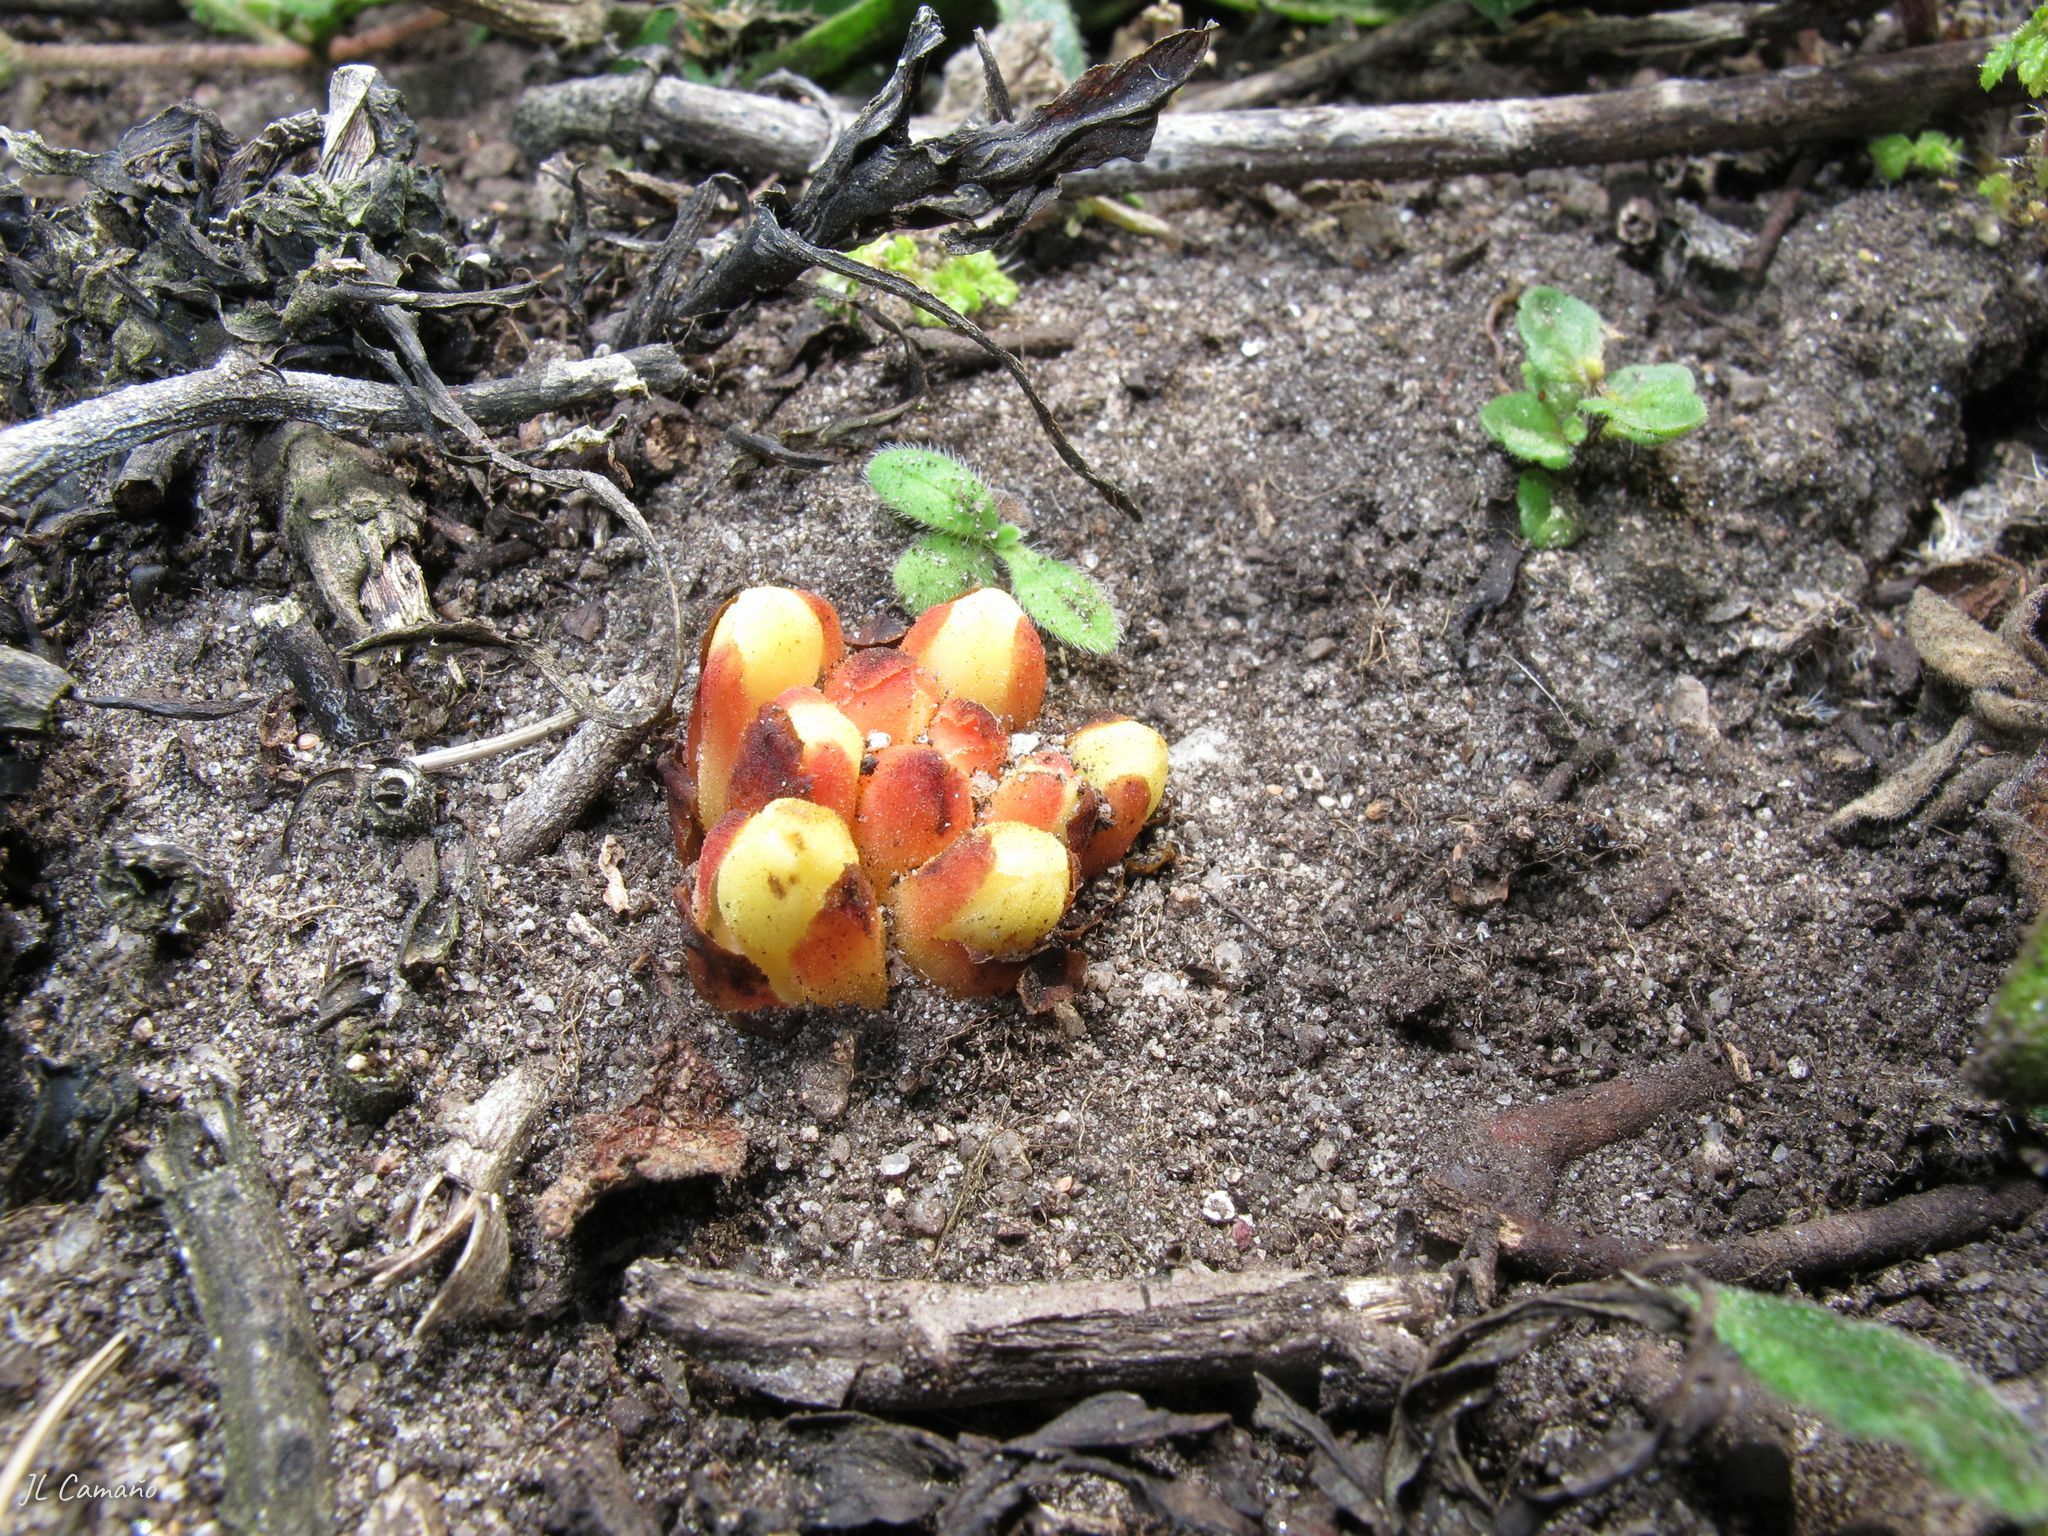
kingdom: Plantae
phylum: Tracheophyta
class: Magnoliopsida
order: Malvales
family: Cytinaceae
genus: Cytinus
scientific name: Cytinus hypocistis
